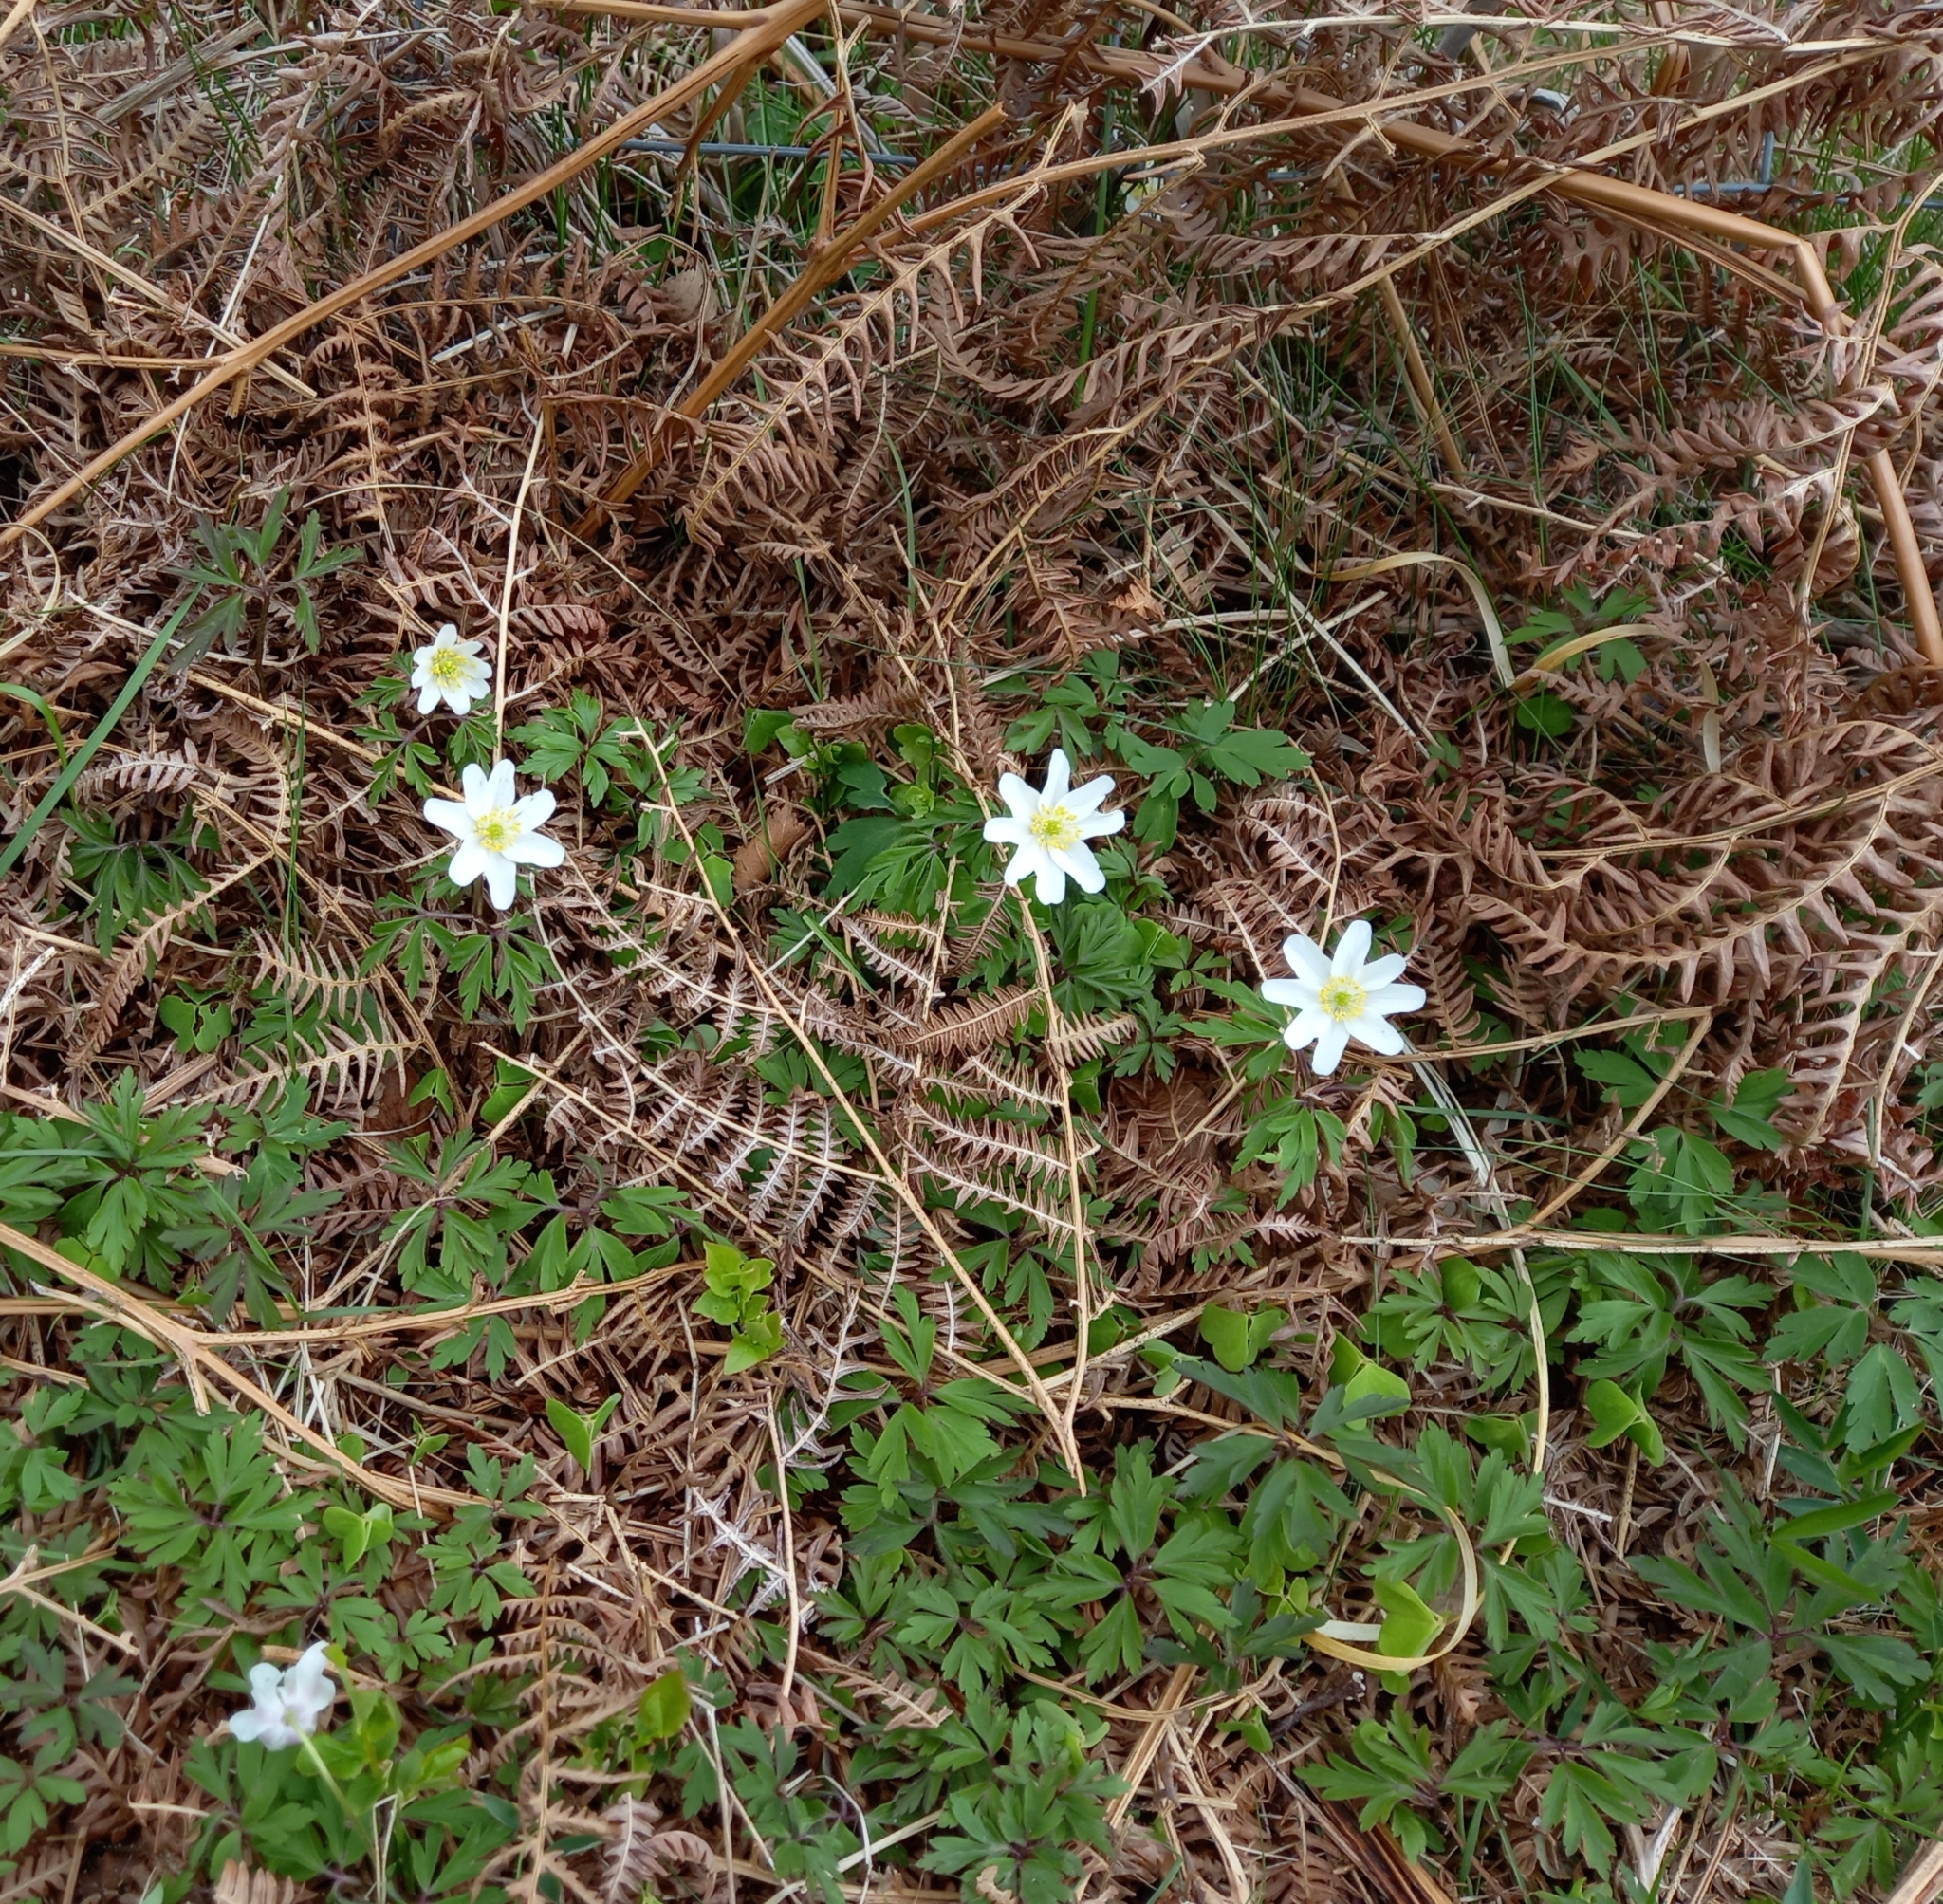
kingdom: Plantae
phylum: Tracheophyta
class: Magnoliopsida
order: Ranunculales
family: Ranunculaceae
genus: Anemone
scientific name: Anemone nemorosa
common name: Wood anemone
